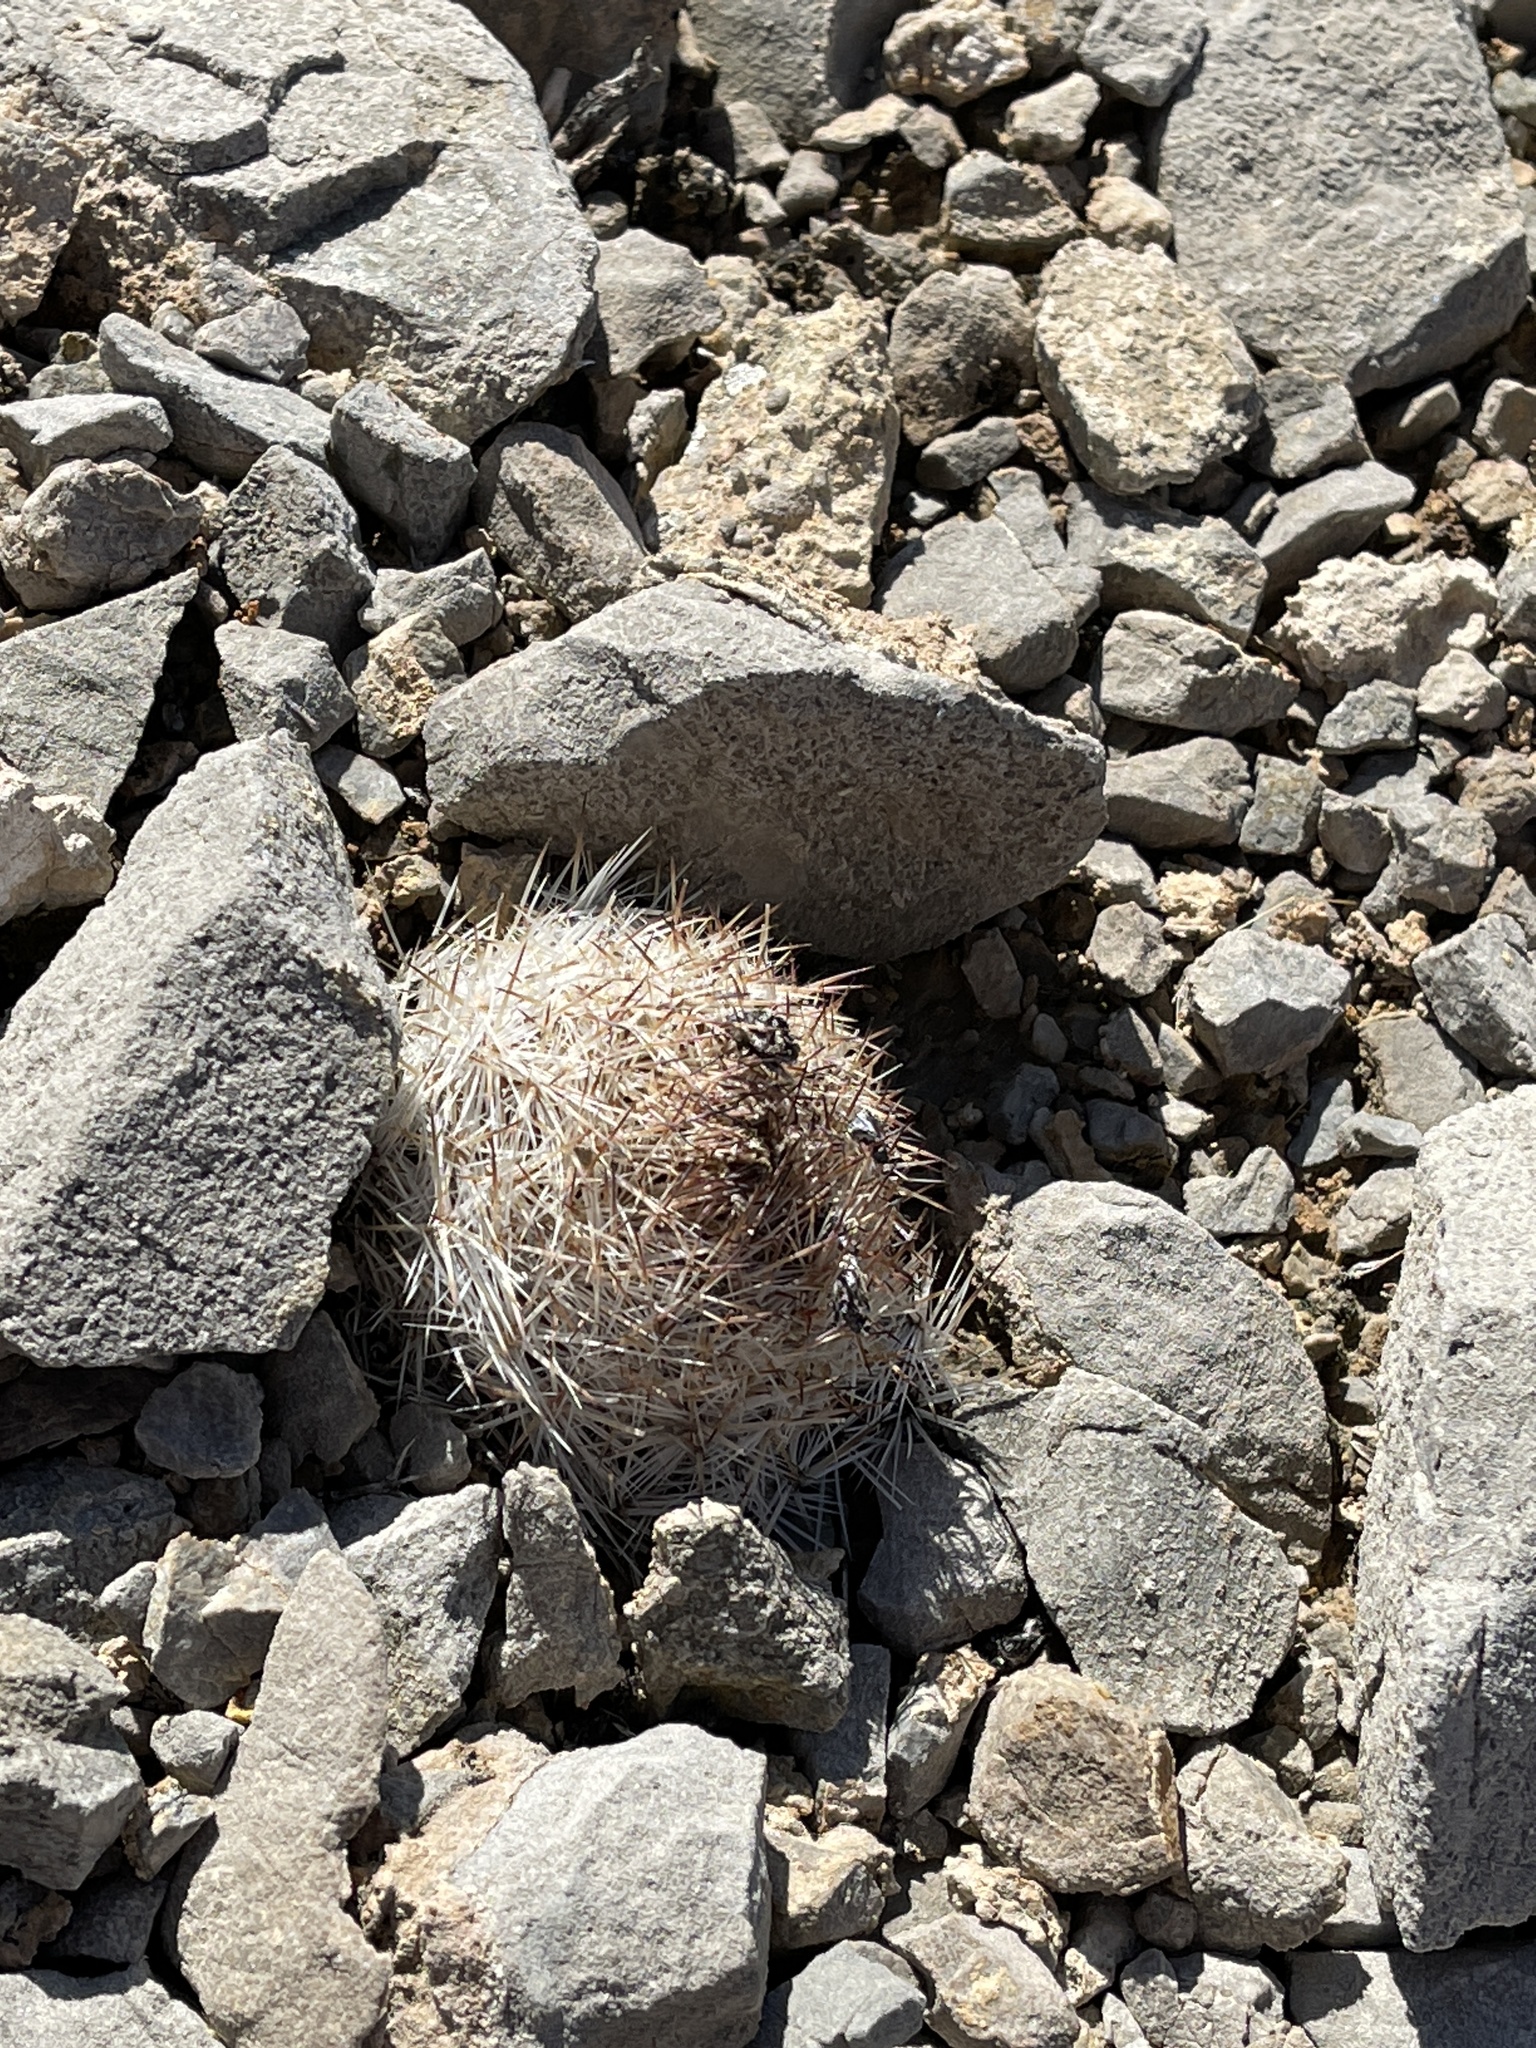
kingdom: Plantae
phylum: Tracheophyta
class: Magnoliopsida
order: Caryophyllales
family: Cactaceae
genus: Pelecyphora
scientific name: Pelecyphora dasyacantha
